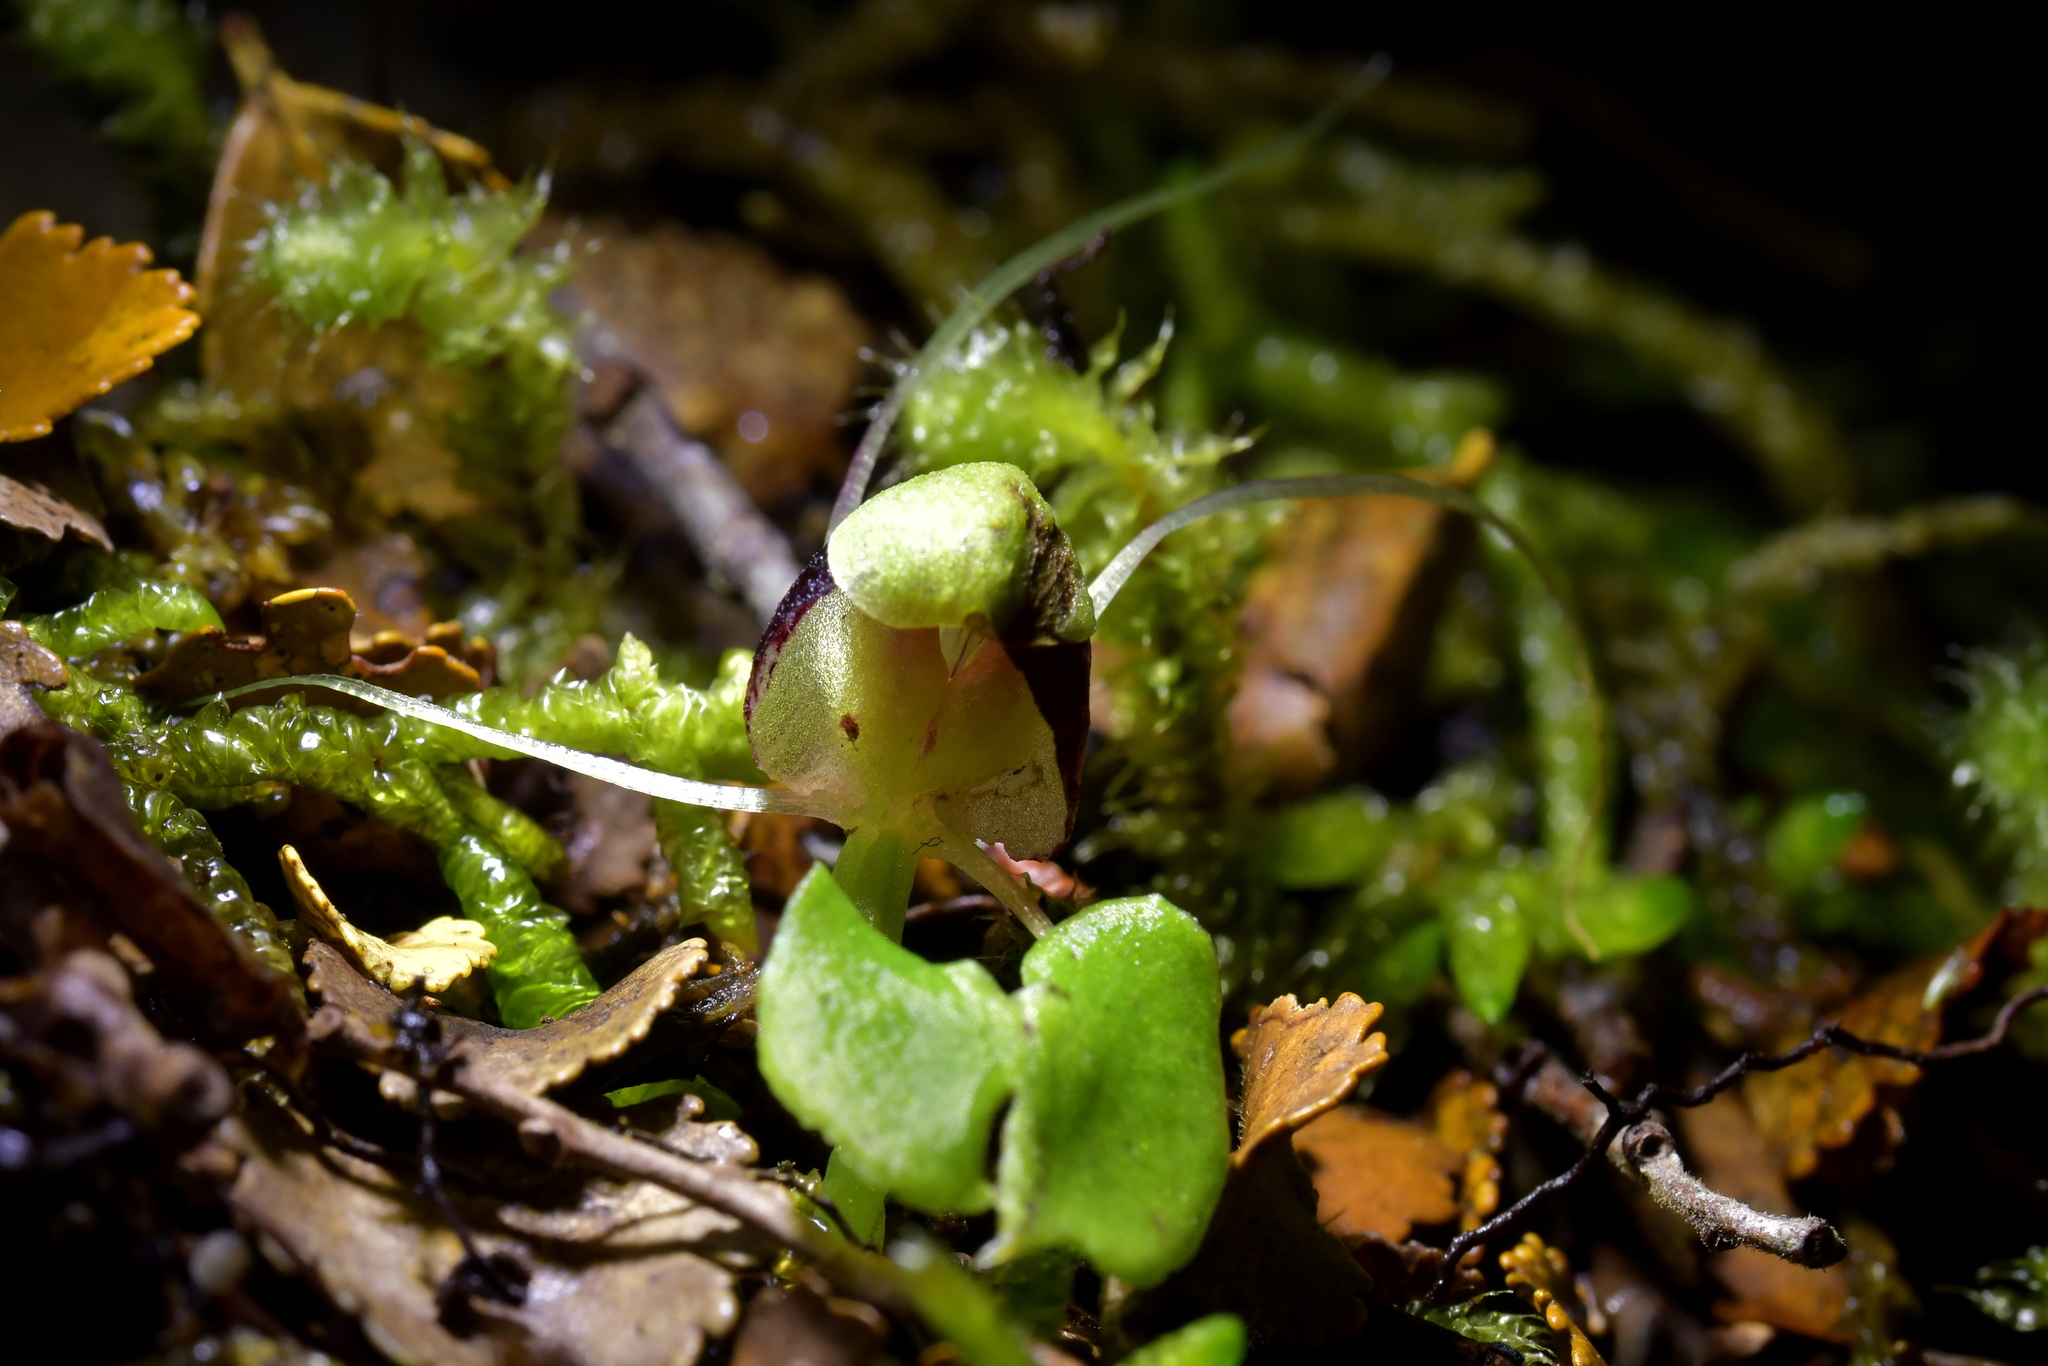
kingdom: Plantae
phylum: Tracheophyta
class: Liliopsida
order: Asparagales
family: Orchidaceae
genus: Corybas
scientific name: Corybas vitreus
